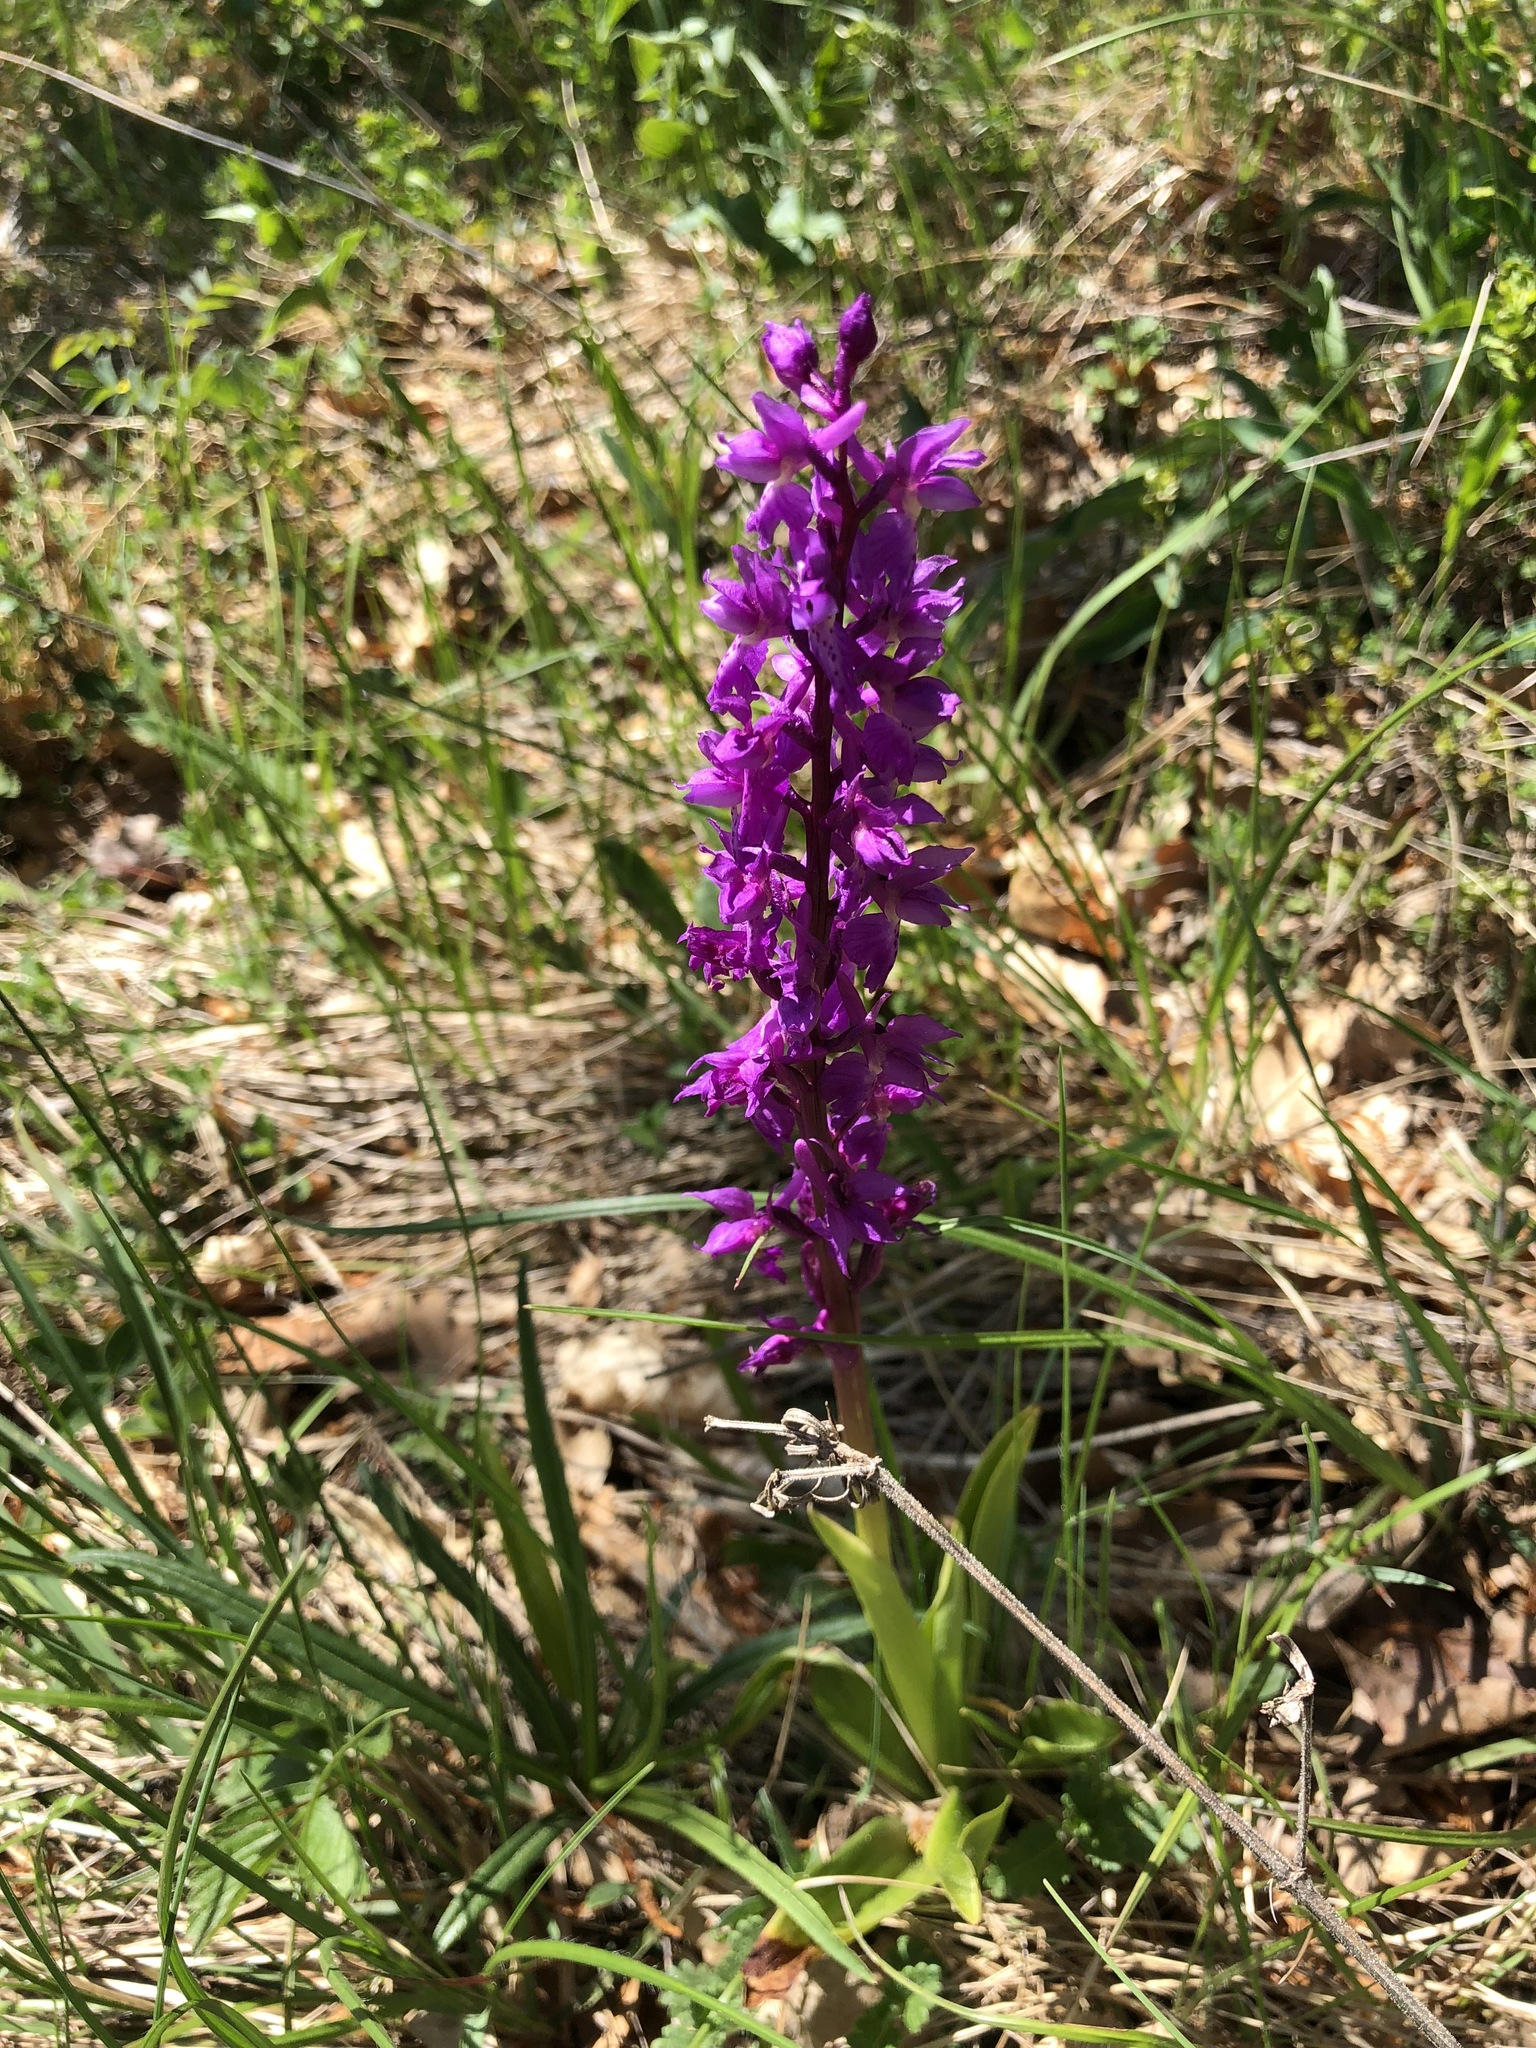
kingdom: Plantae
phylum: Tracheophyta
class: Liliopsida
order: Asparagales
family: Orchidaceae
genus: Orchis
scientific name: Orchis mascula
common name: Early-purple orchid
